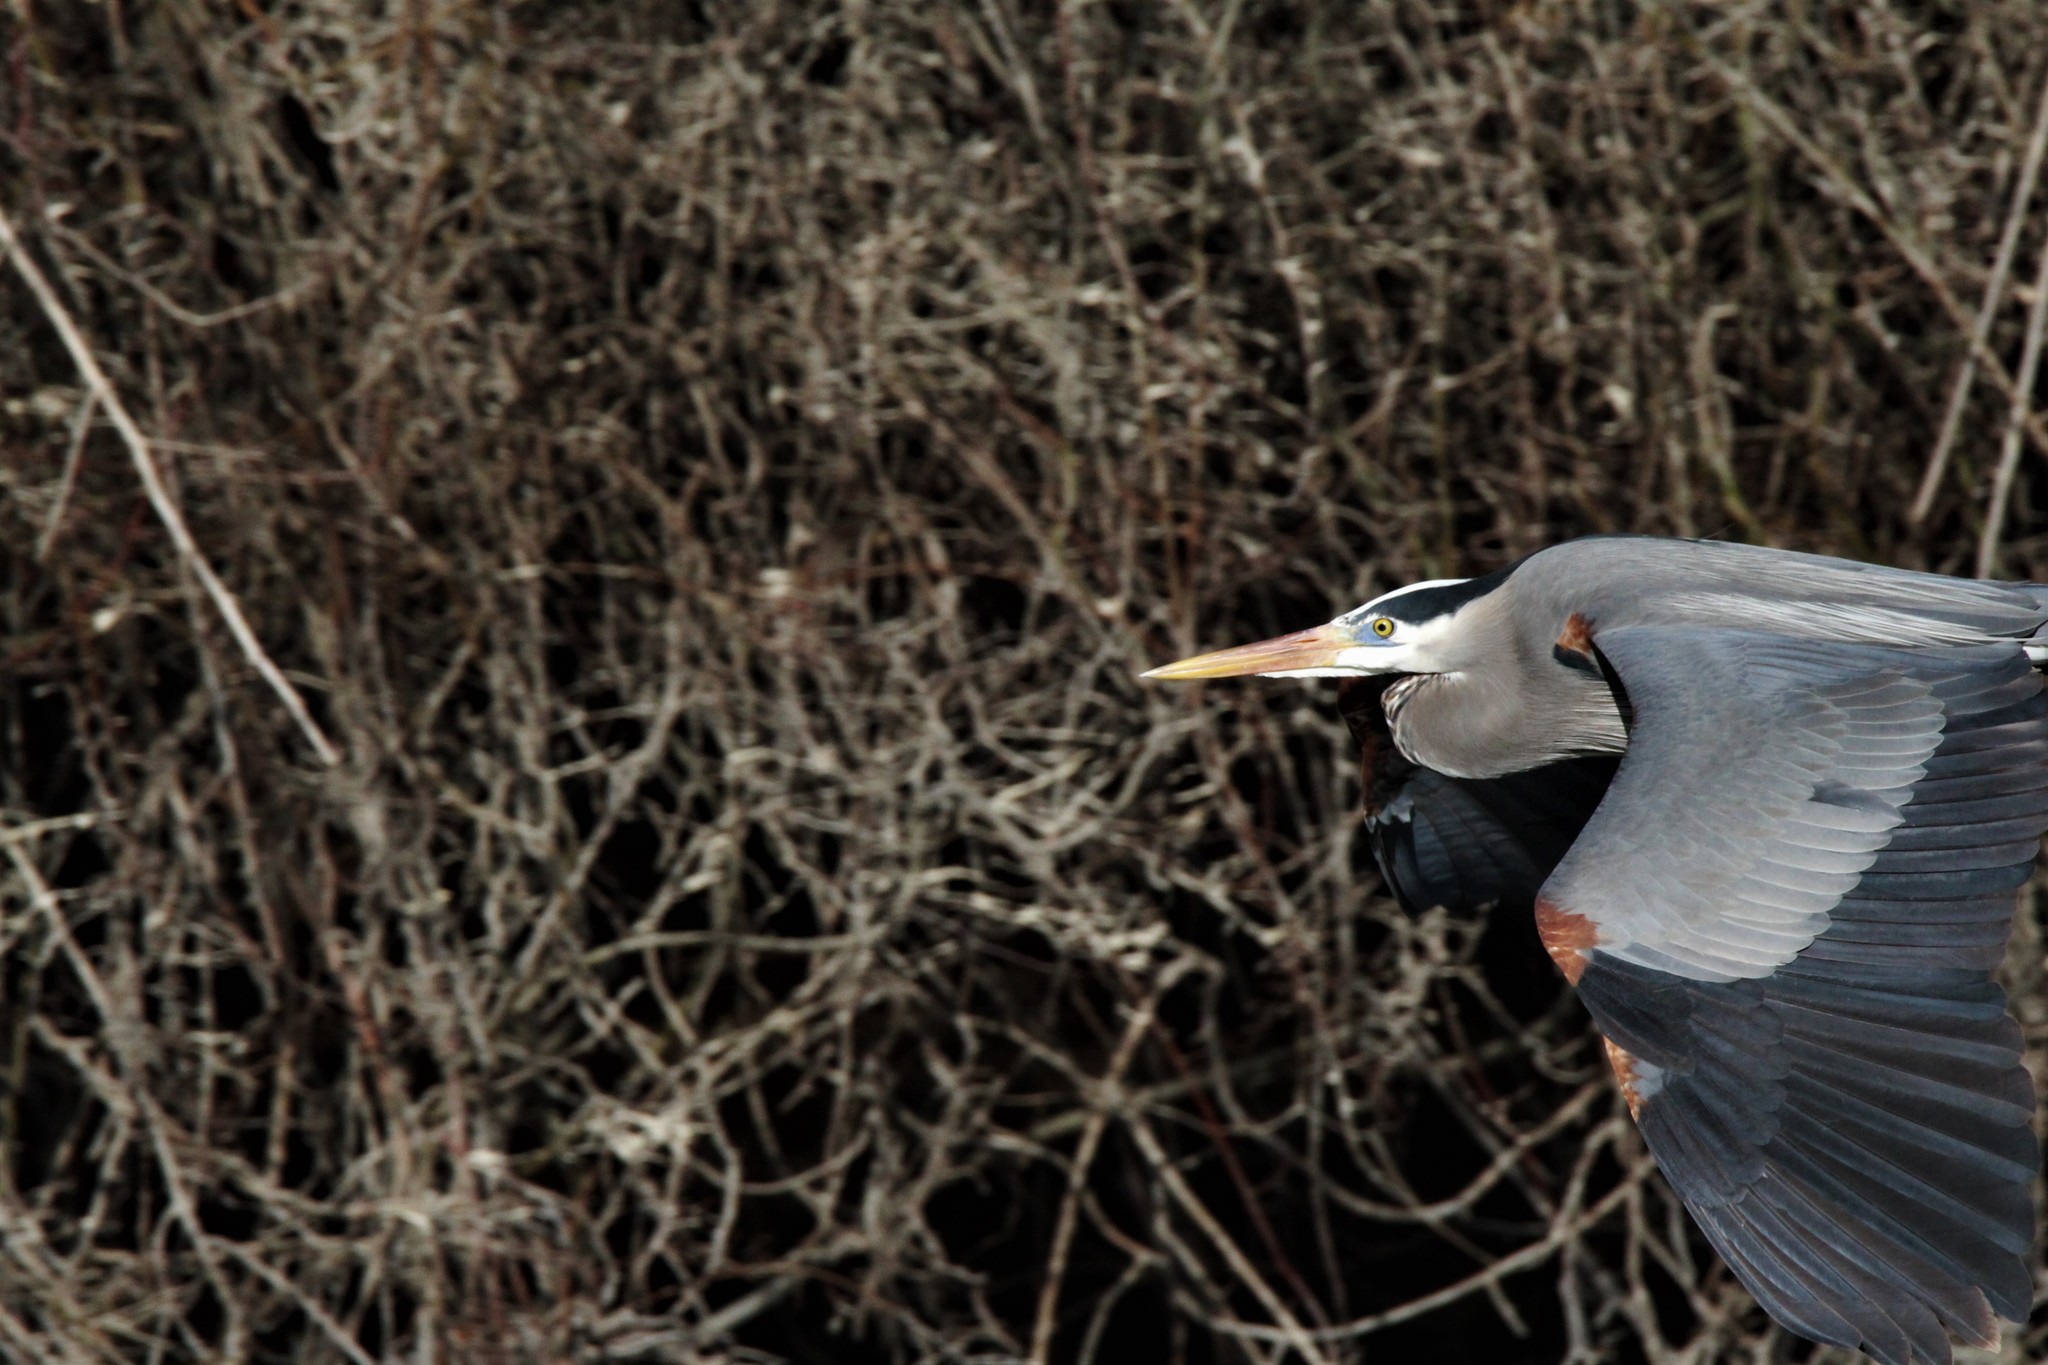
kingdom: Animalia
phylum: Chordata
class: Aves
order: Pelecaniformes
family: Ardeidae
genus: Ardea
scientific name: Ardea herodias
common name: Great blue heron
